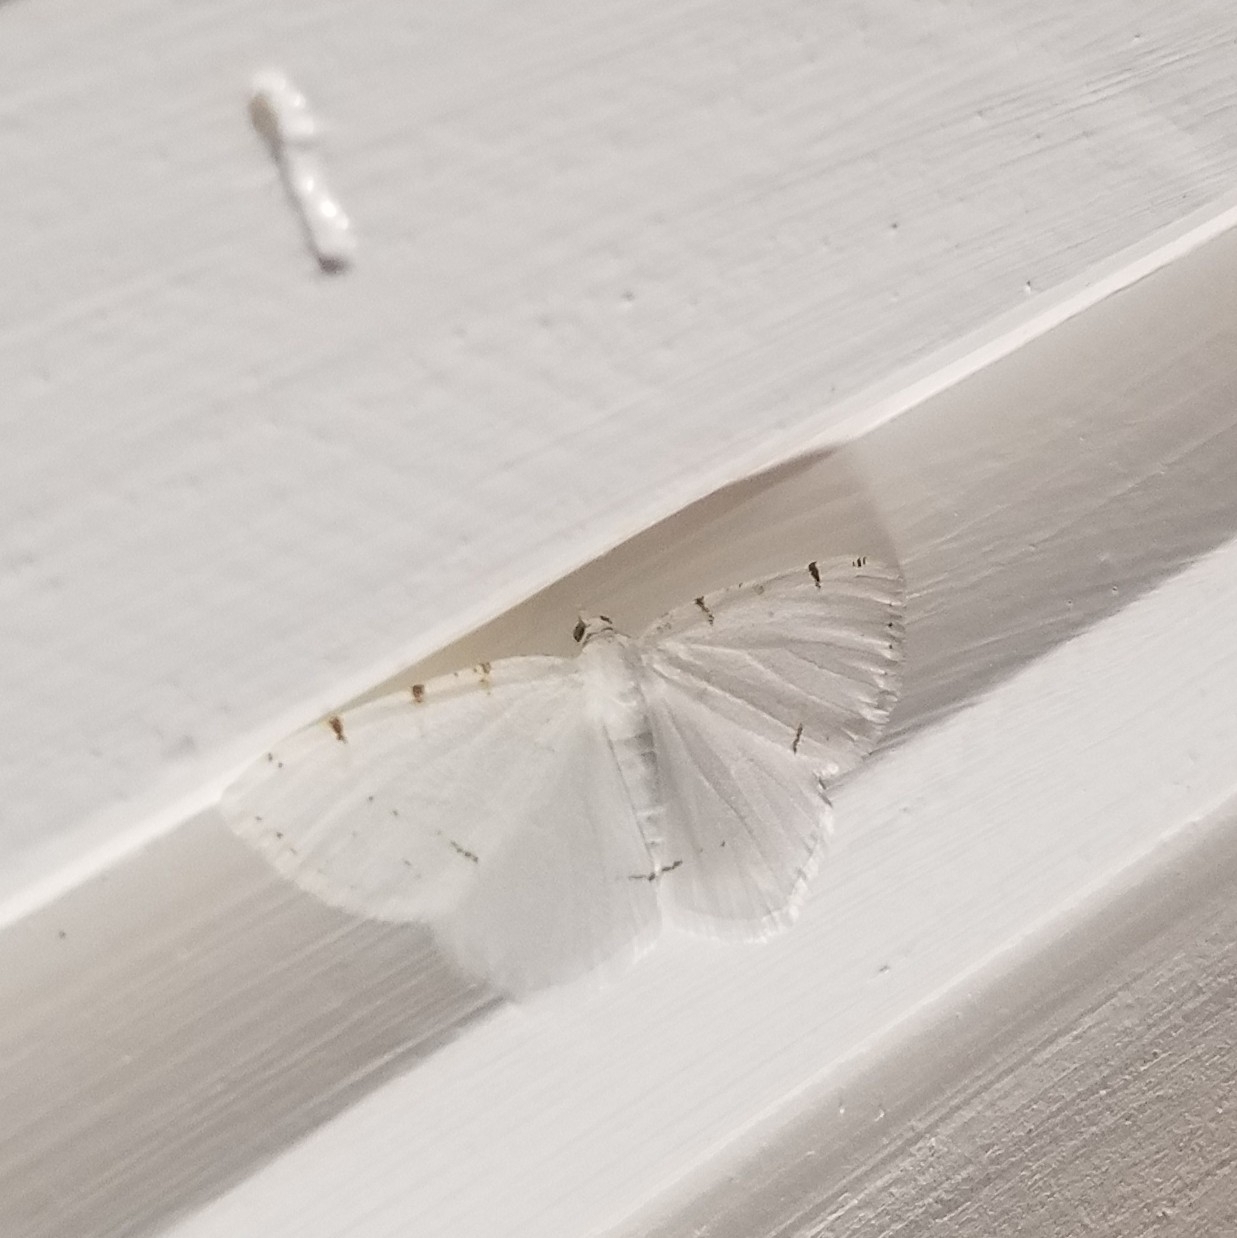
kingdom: Animalia
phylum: Arthropoda
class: Insecta
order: Lepidoptera
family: Geometridae
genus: Macaria
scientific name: Macaria pustularia
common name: Lesser maple spanworm moth
